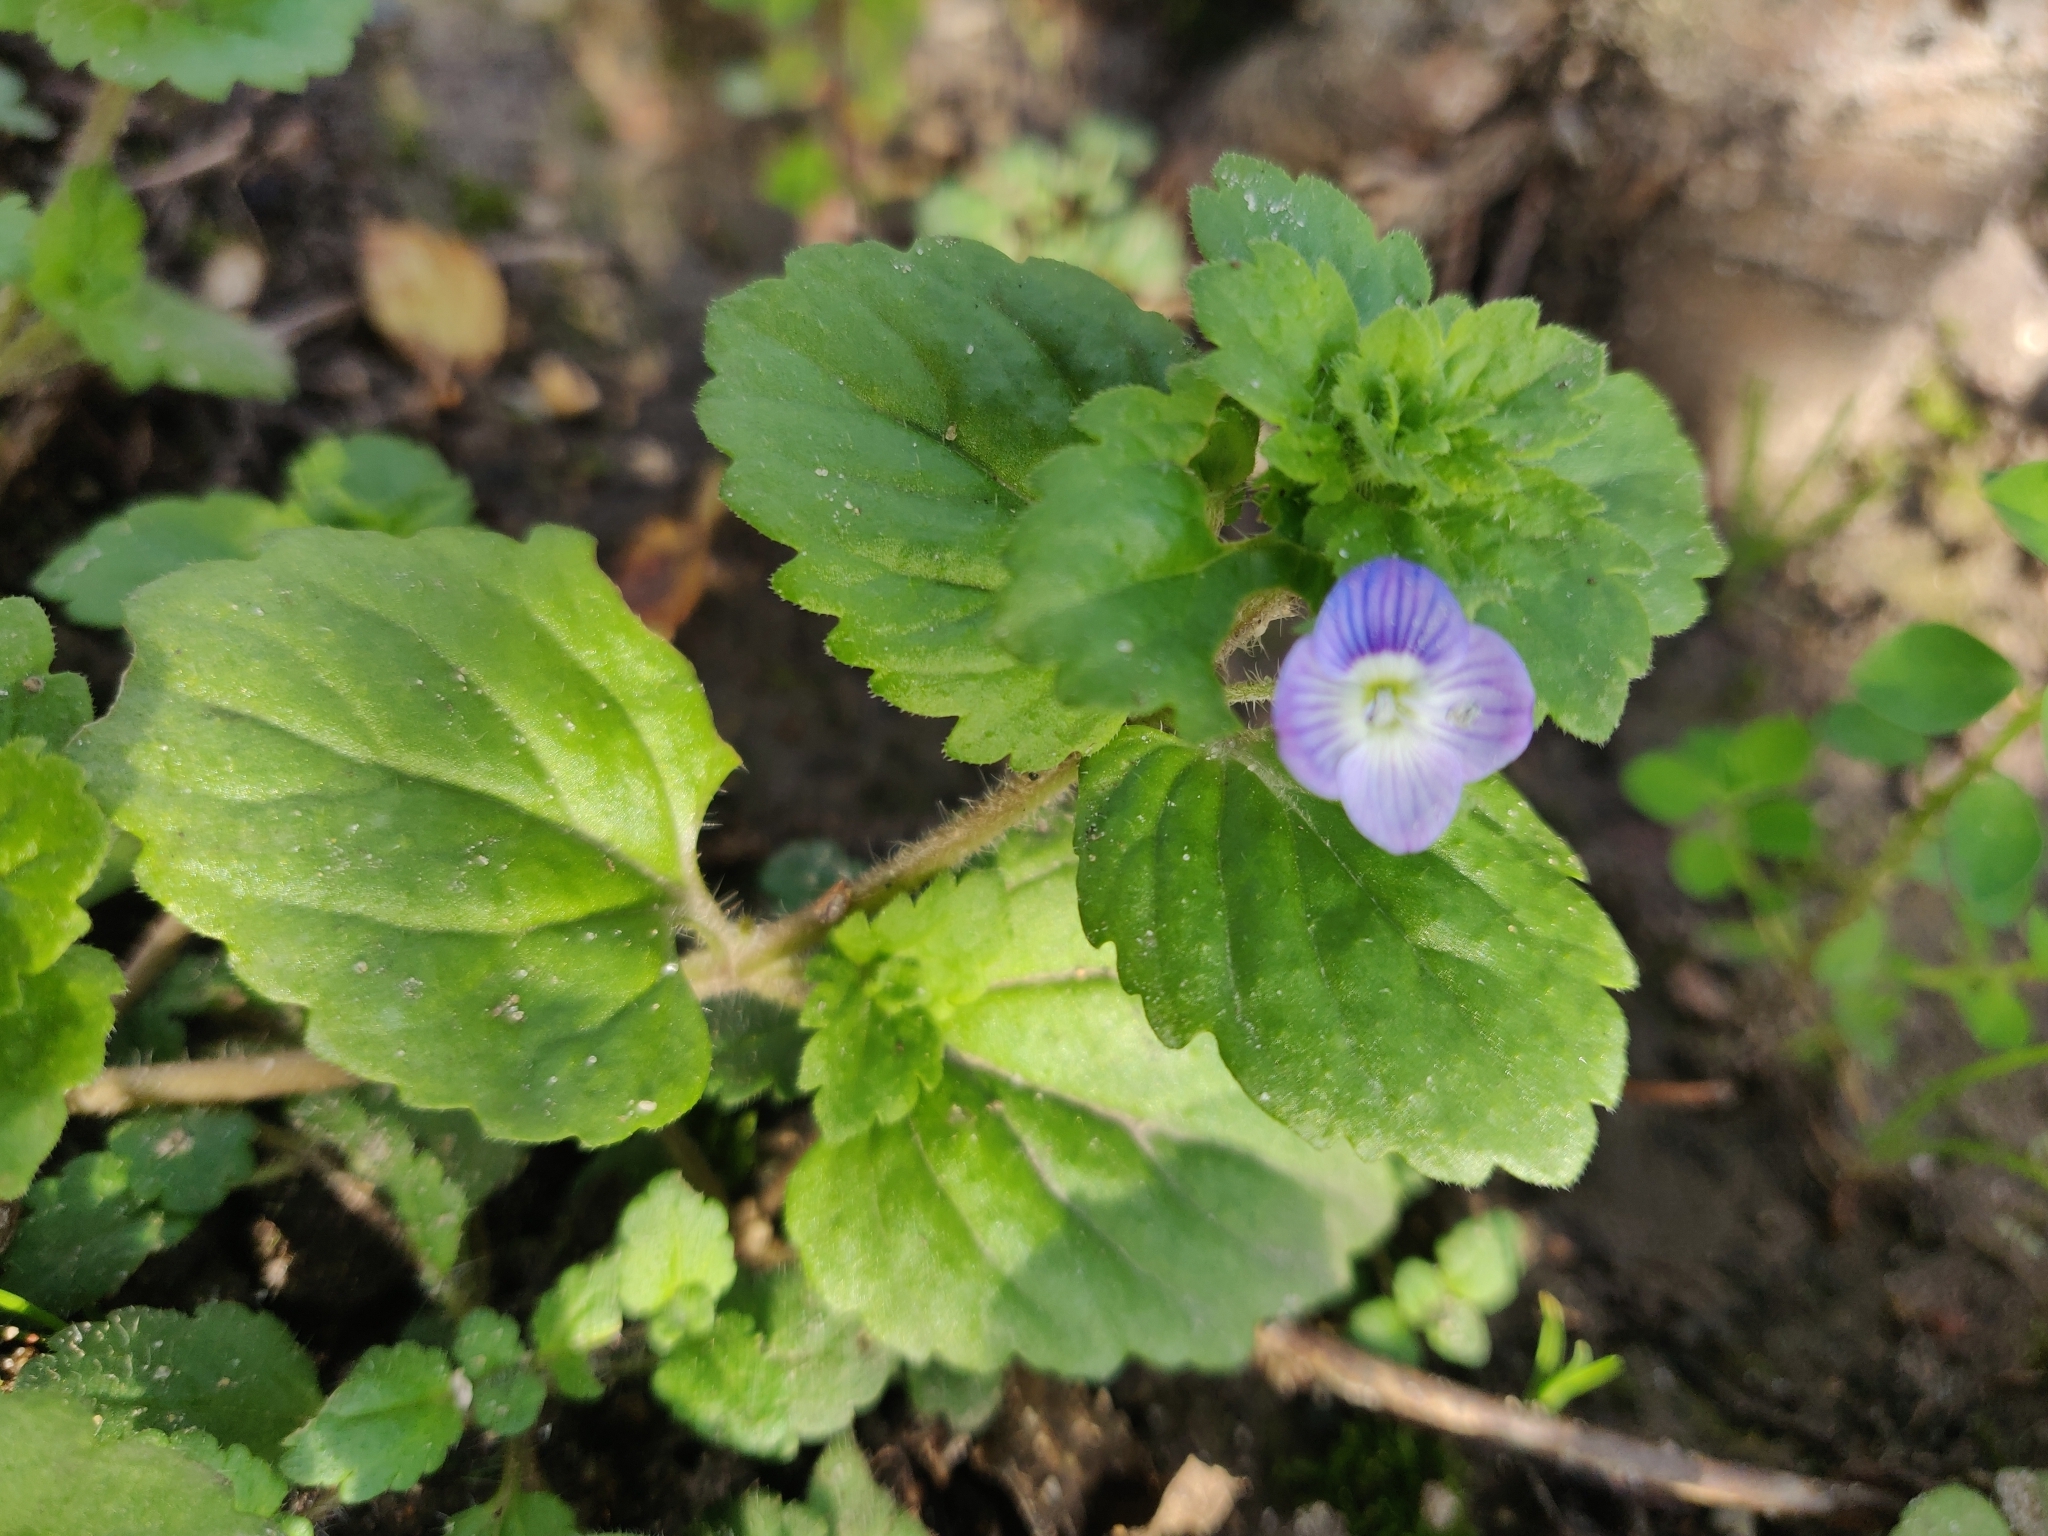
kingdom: Plantae
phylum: Tracheophyta
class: Magnoliopsida
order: Lamiales
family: Plantaginaceae
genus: Veronica
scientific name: Veronica persica
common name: Common field-speedwell
